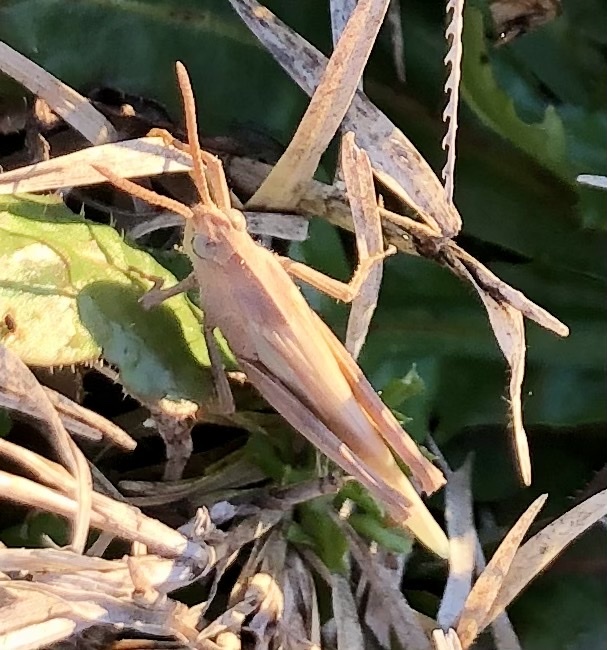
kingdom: Animalia
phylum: Arthropoda
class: Insecta
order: Orthoptera
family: Acrididae
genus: Chortophaga
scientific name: Chortophaga viridifasciata
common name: Green-striped grasshopper
